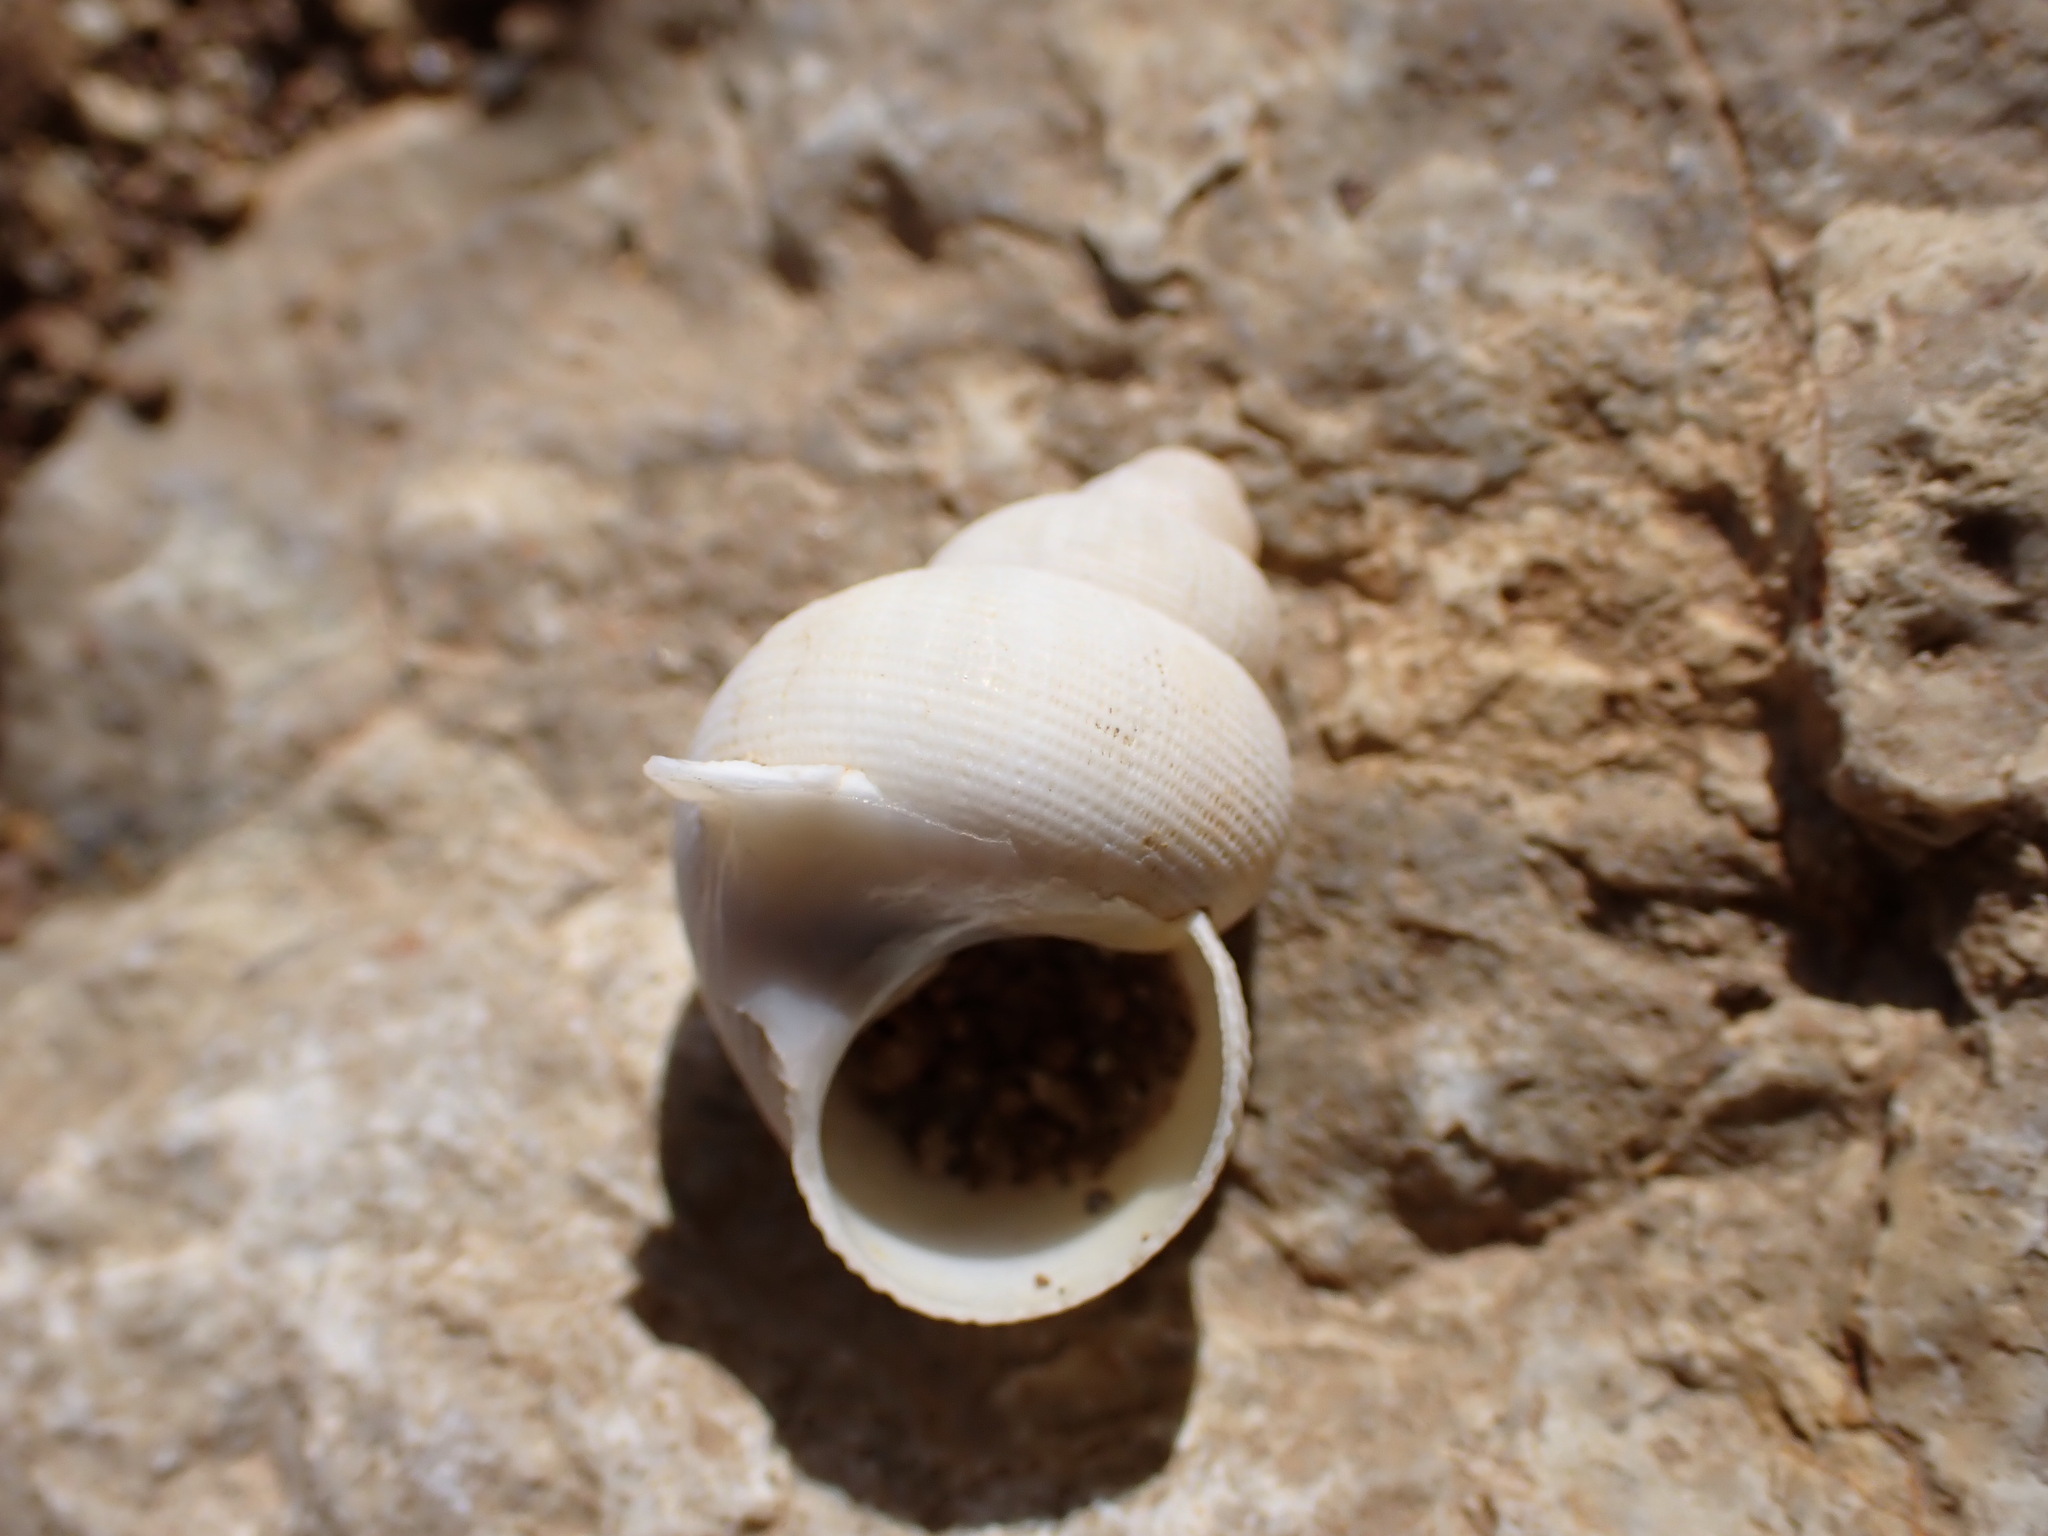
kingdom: Animalia
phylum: Mollusca
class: Gastropoda
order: Littorinimorpha
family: Pomatiidae
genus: Pomatias
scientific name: Pomatias elegans
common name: Red-mouthed snail
